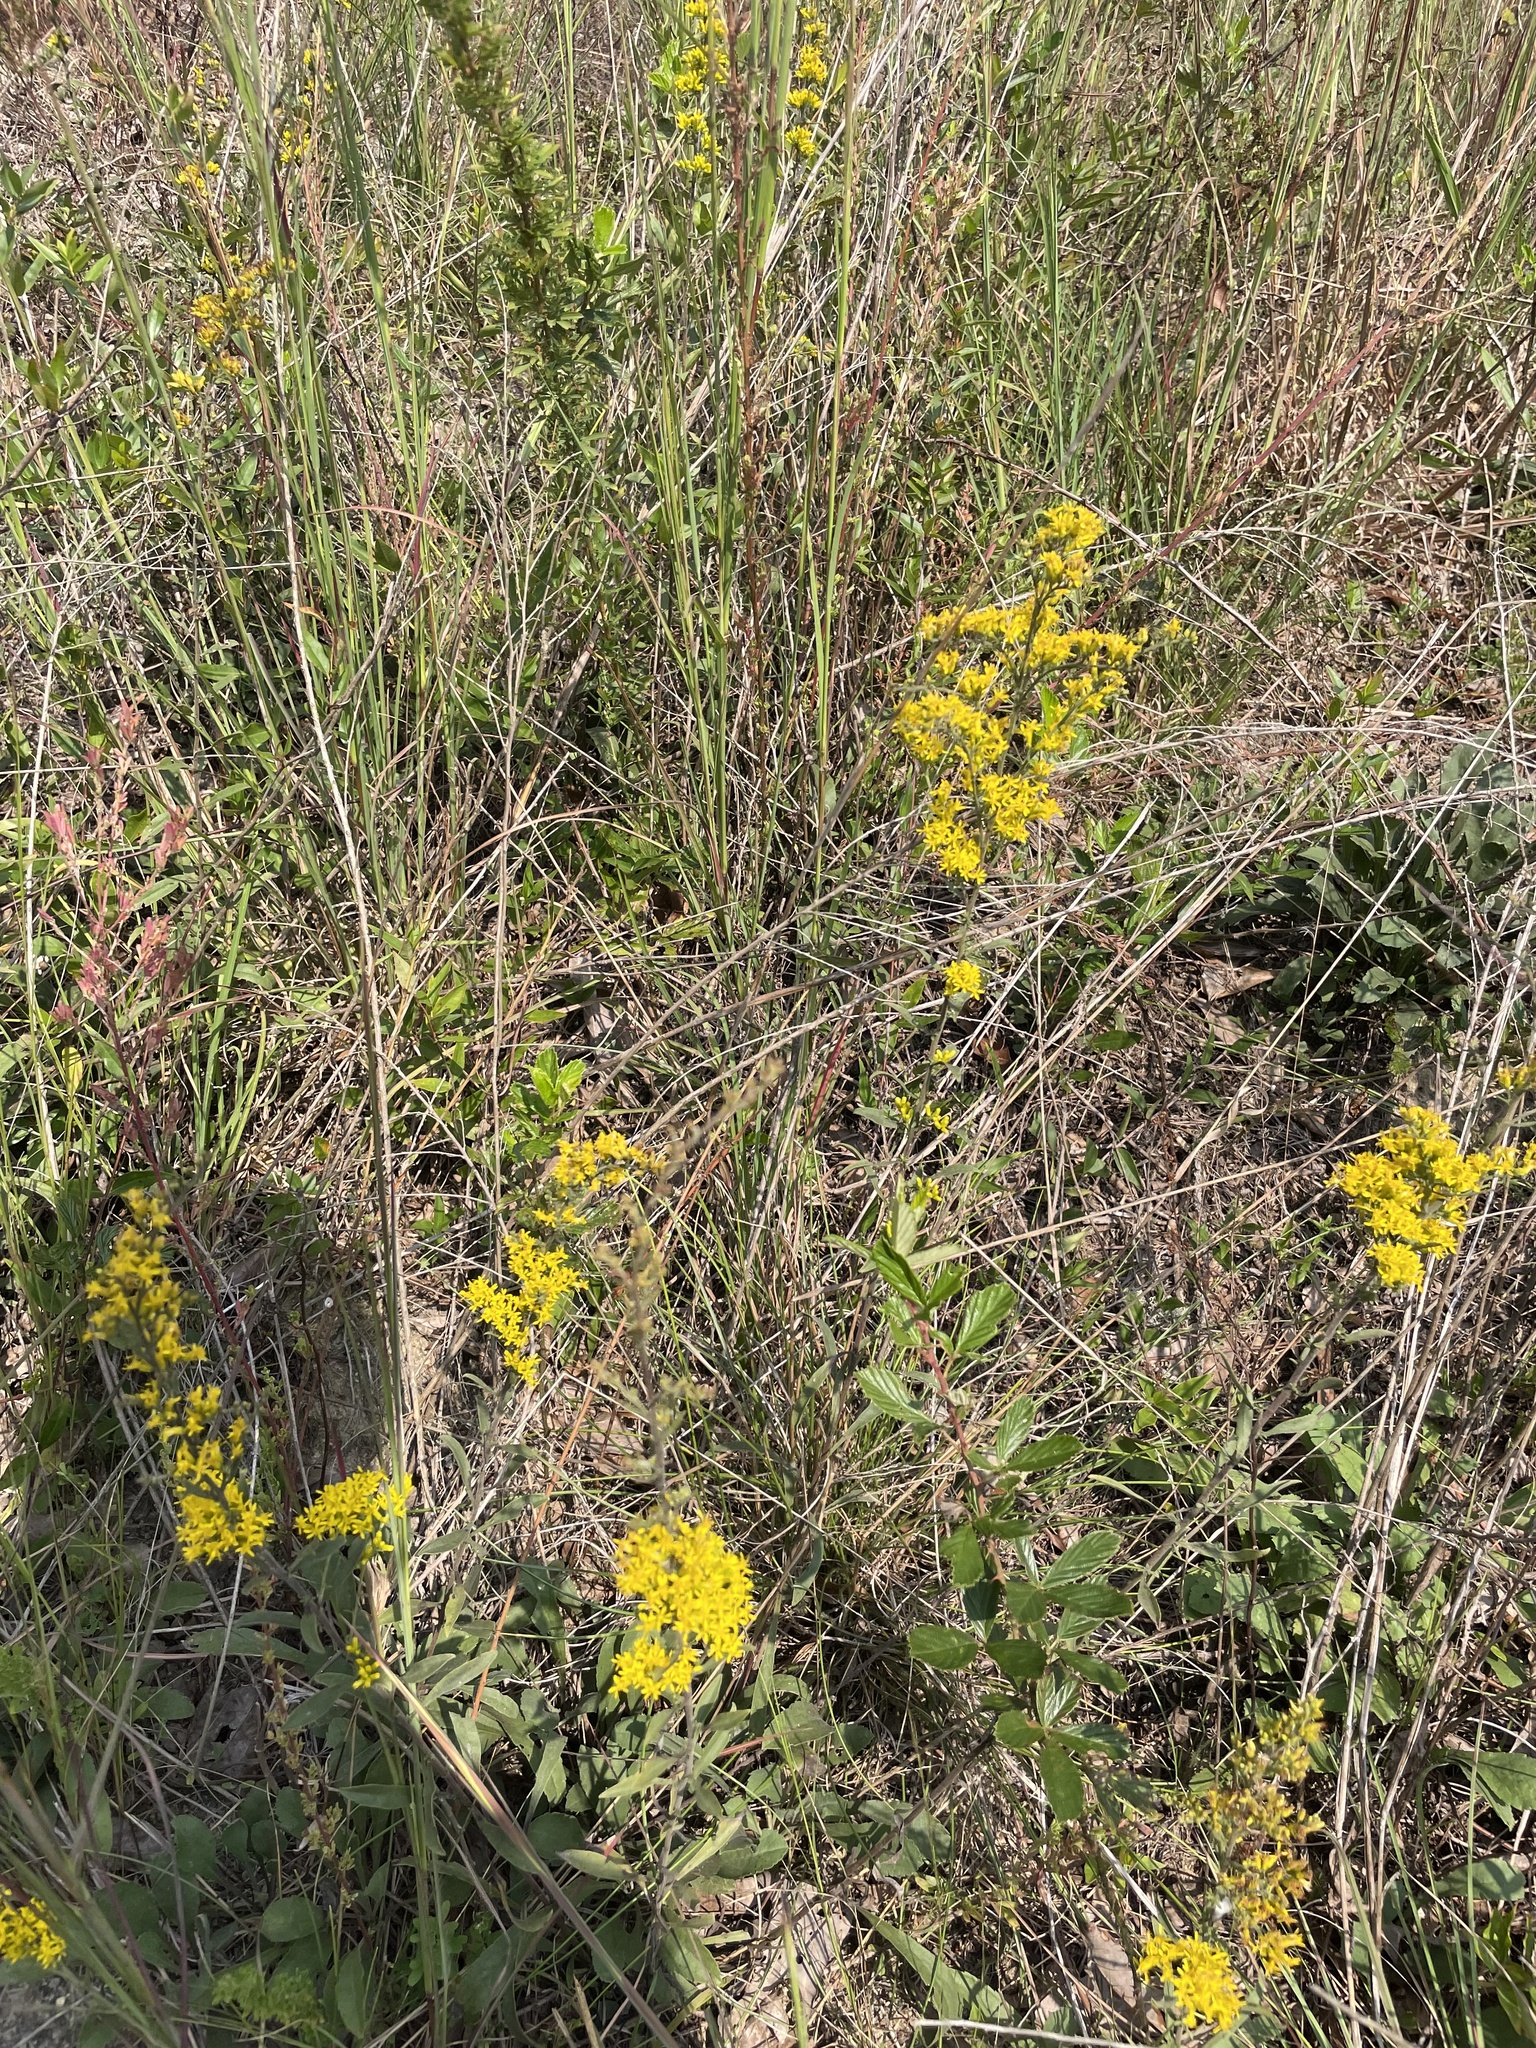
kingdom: Plantae
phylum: Tracheophyta
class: Magnoliopsida
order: Asterales
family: Asteraceae
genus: Solidago
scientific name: Solidago nemoralis
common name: Grey goldenrod
